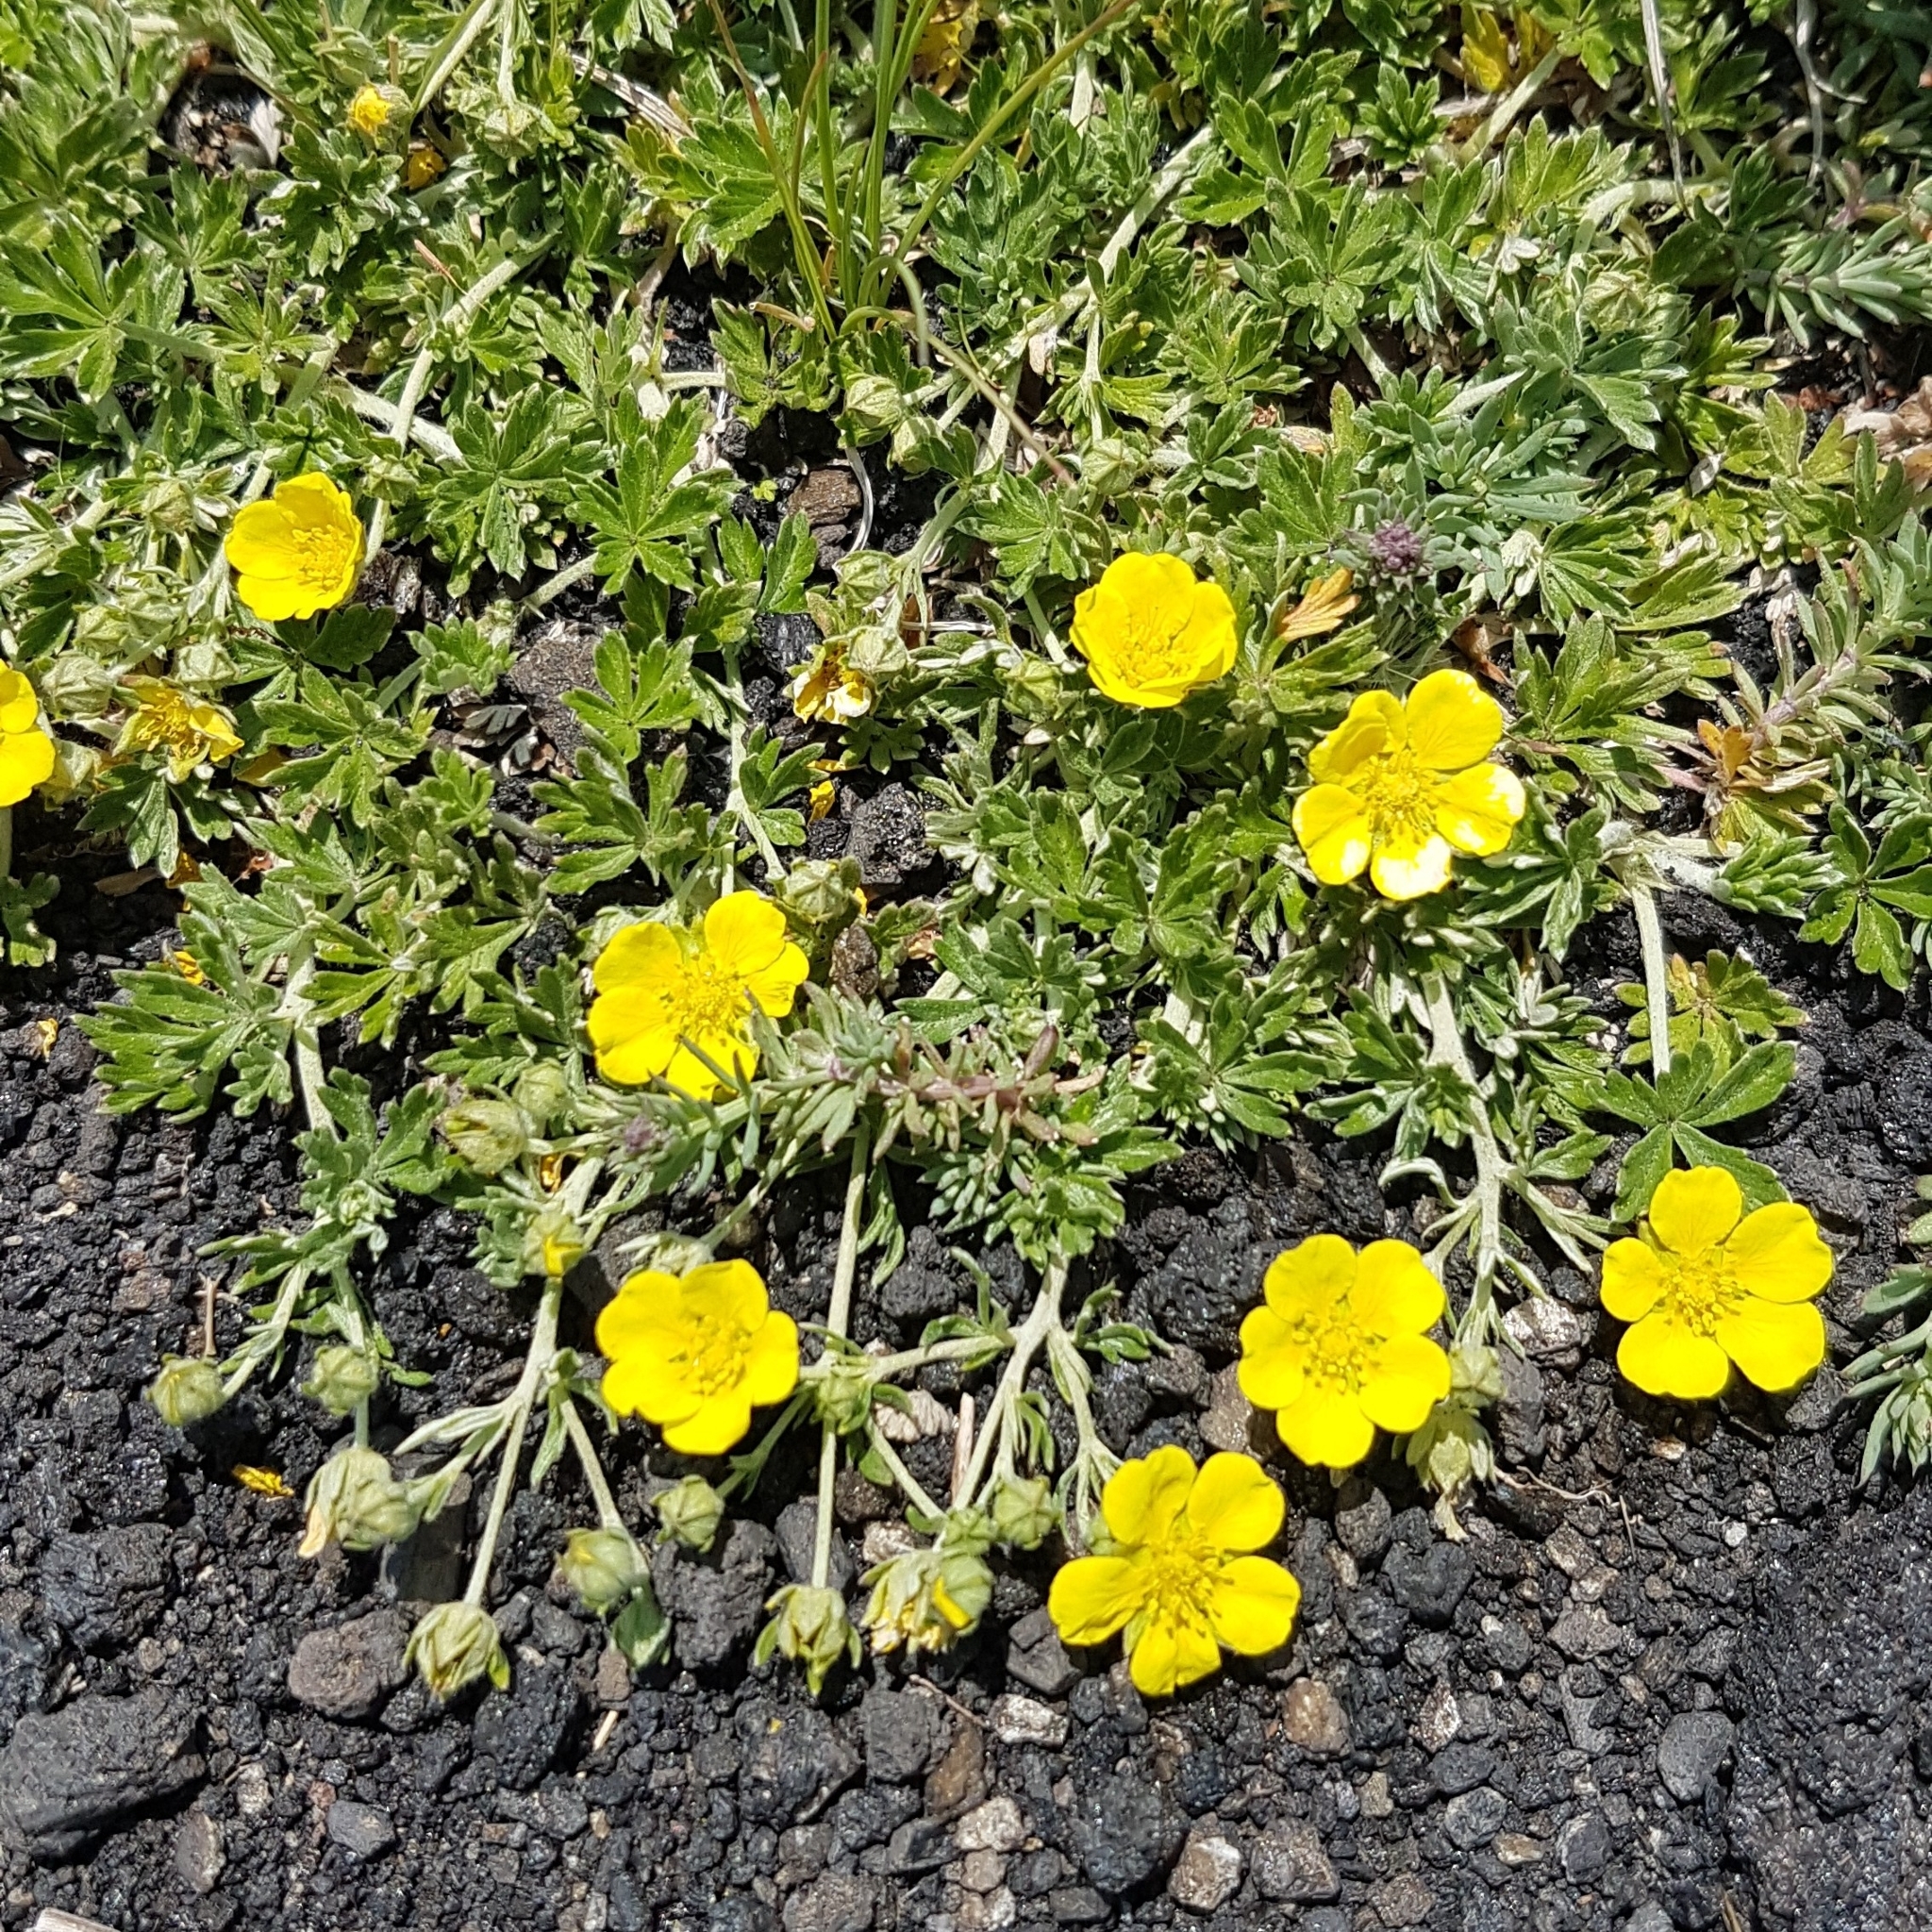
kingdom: Plantae
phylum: Tracheophyta
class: Magnoliopsida
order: Rosales
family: Rosaceae
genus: Potentilla
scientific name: Potentilla reptans
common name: Creeping cinquefoil
